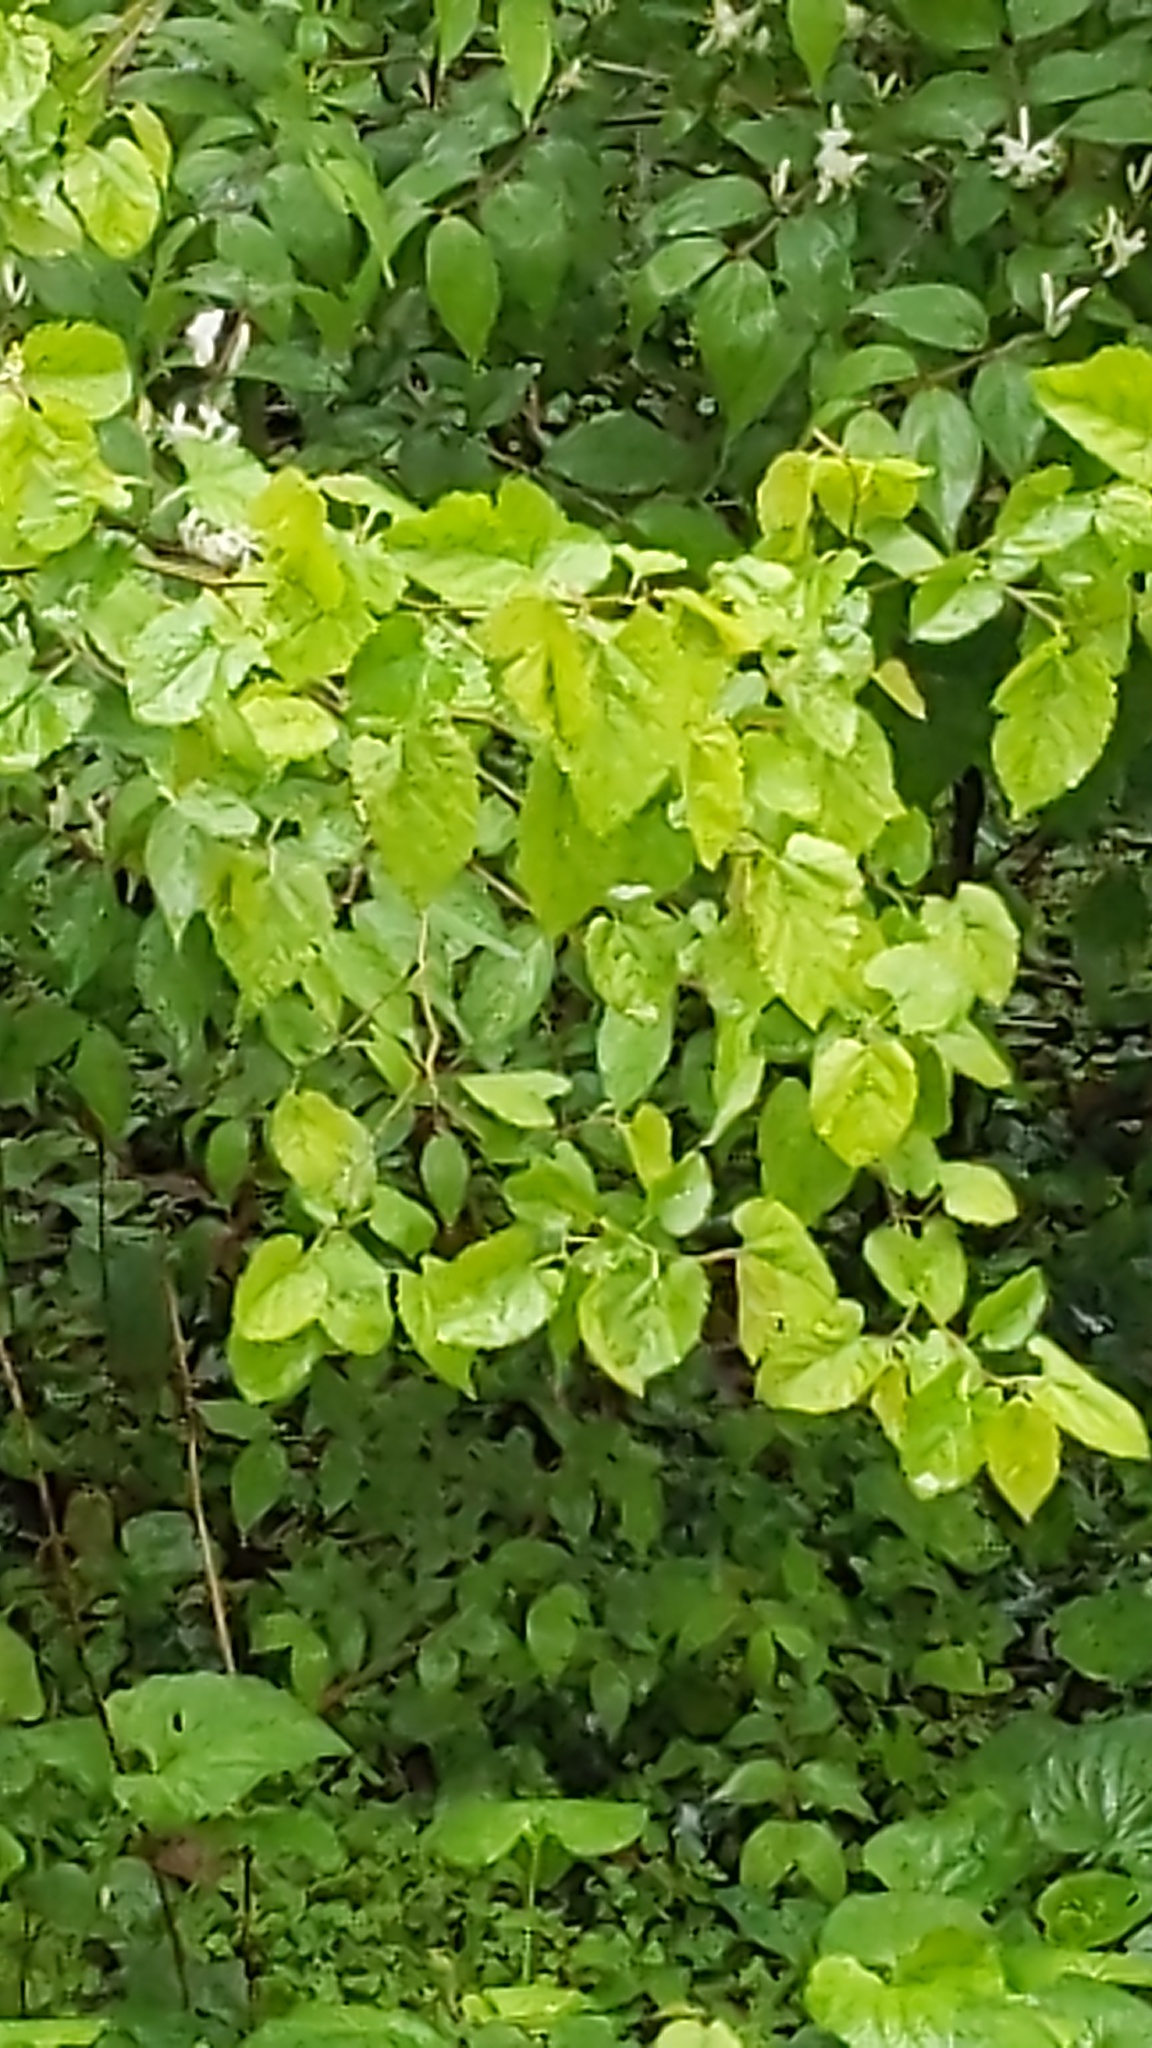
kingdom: Plantae
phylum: Tracheophyta
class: Magnoliopsida
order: Rosales
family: Moraceae
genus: Morus
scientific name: Morus alba
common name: White mulberry
